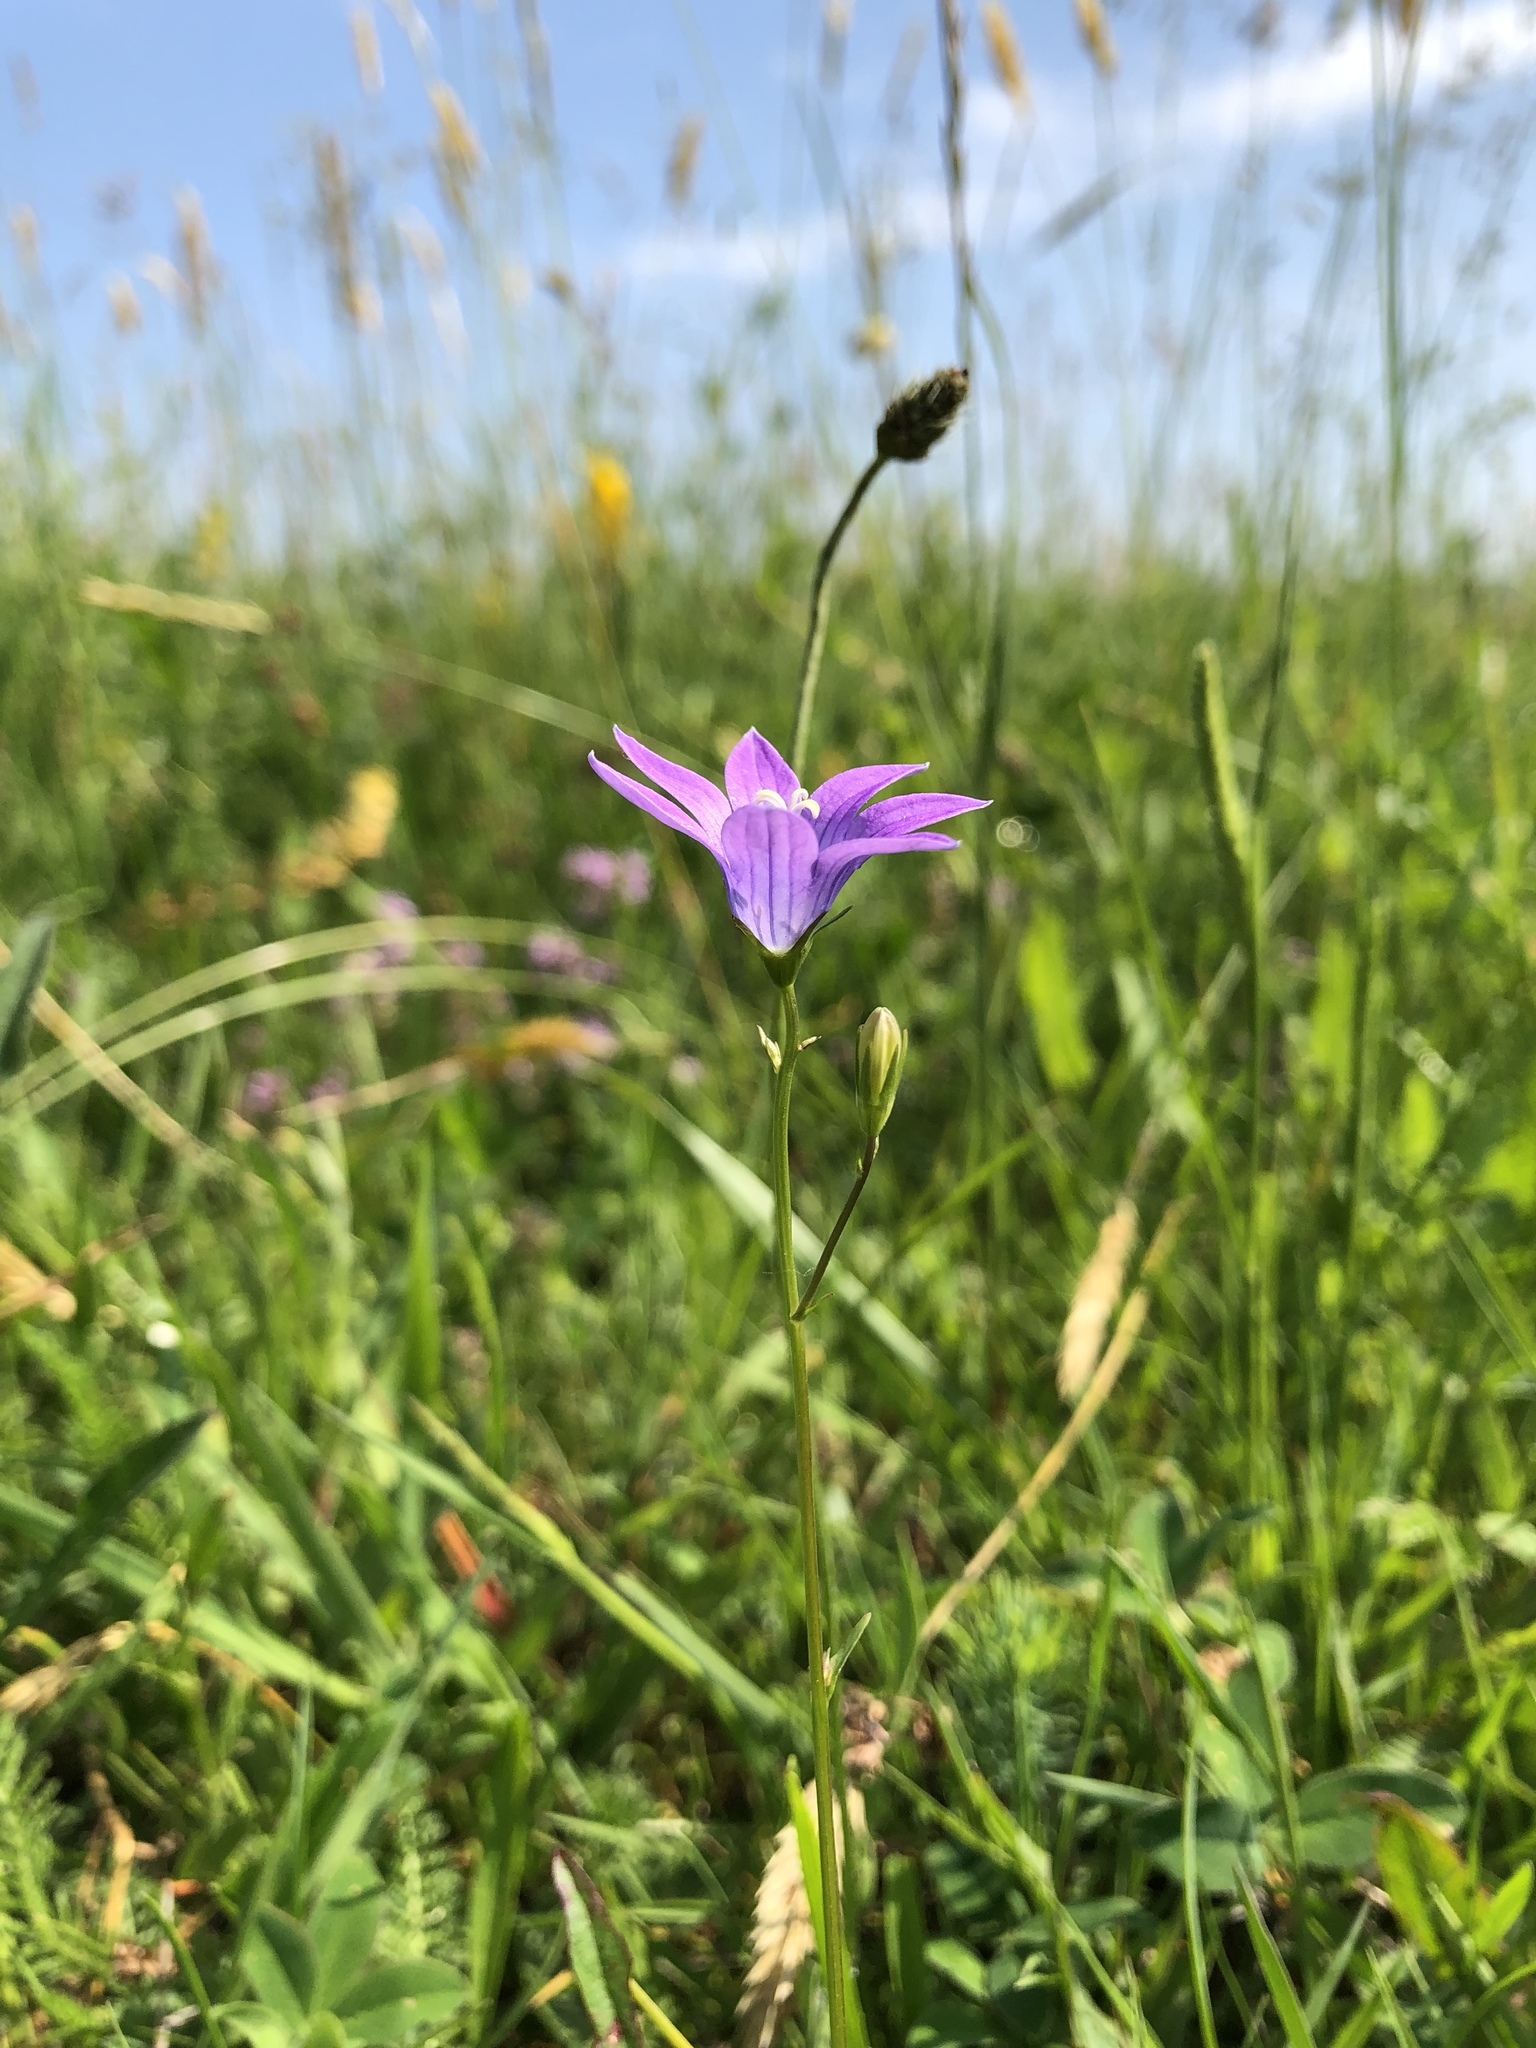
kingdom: Plantae
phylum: Tracheophyta
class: Magnoliopsida
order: Asterales
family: Campanulaceae
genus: Campanula
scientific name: Campanula patula
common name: Spreading bellflower
